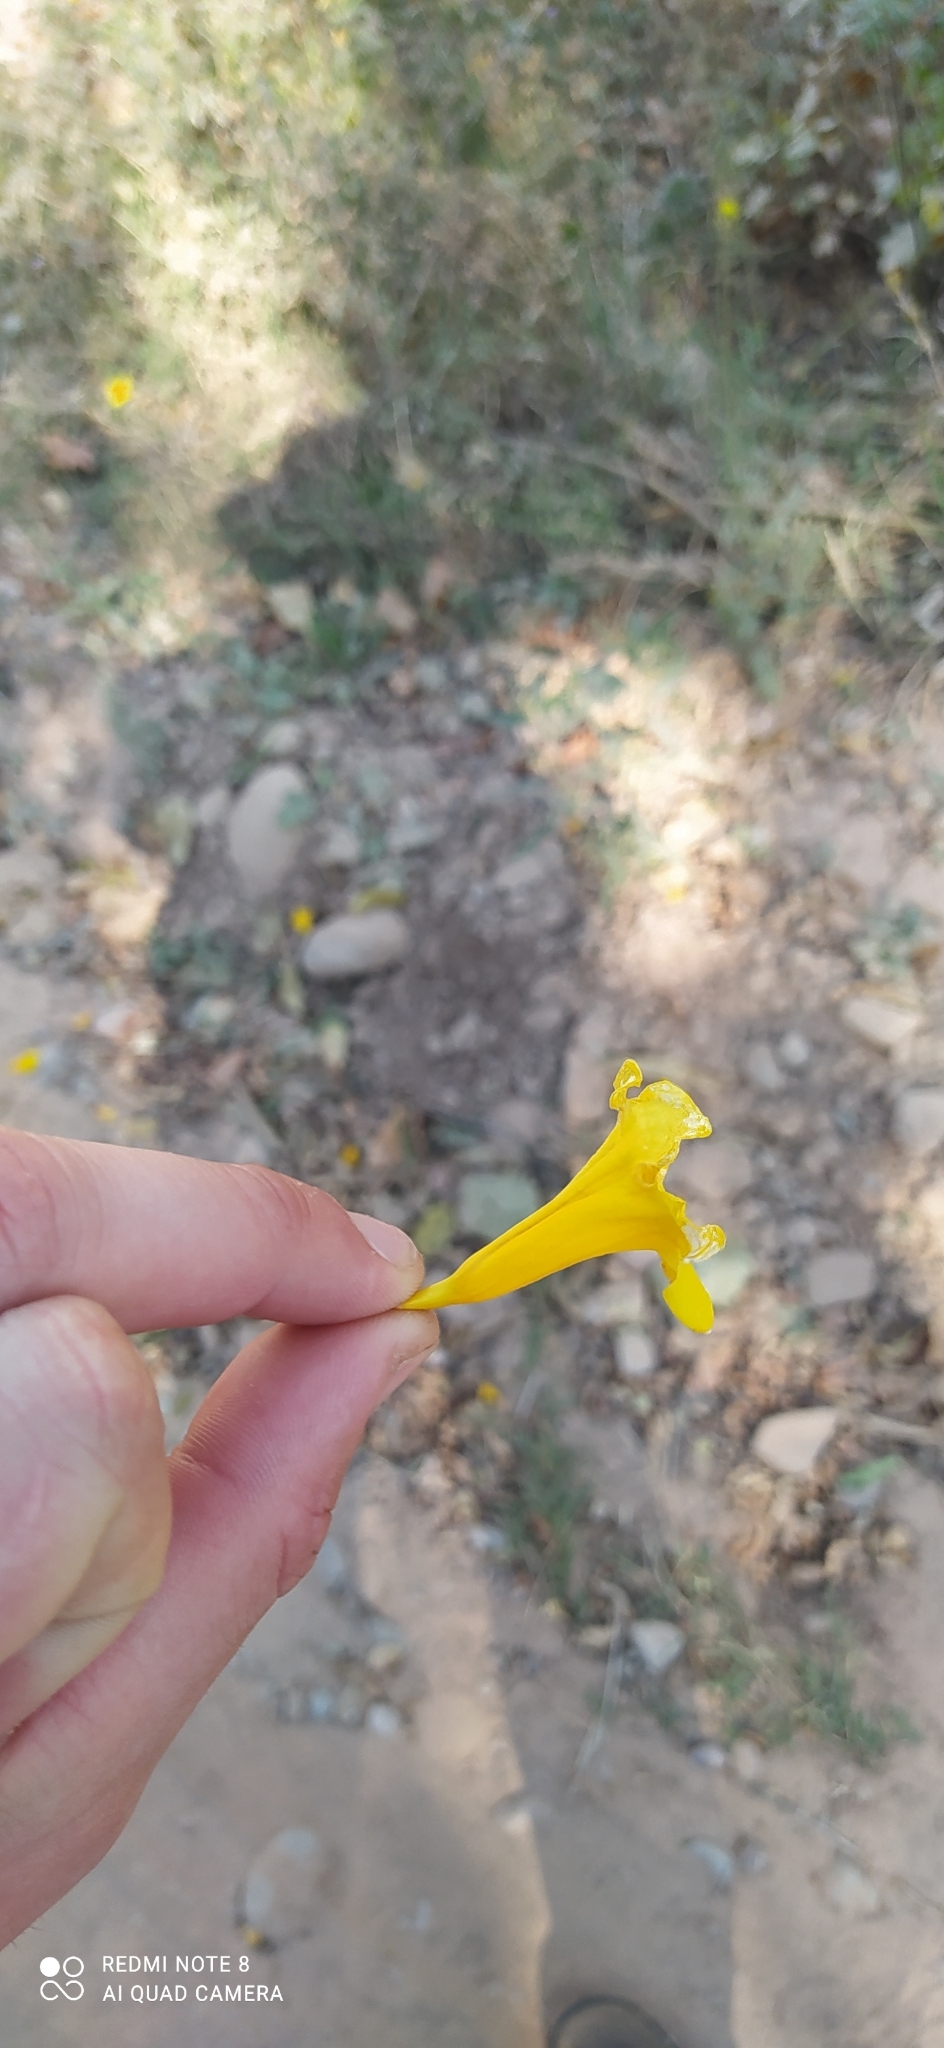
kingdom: Plantae
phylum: Tracheophyta
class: Magnoliopsida
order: Lamiales
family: Bignoniaceae
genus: Tecoma
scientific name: Tecoma stans
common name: Yellow trumpetbush
